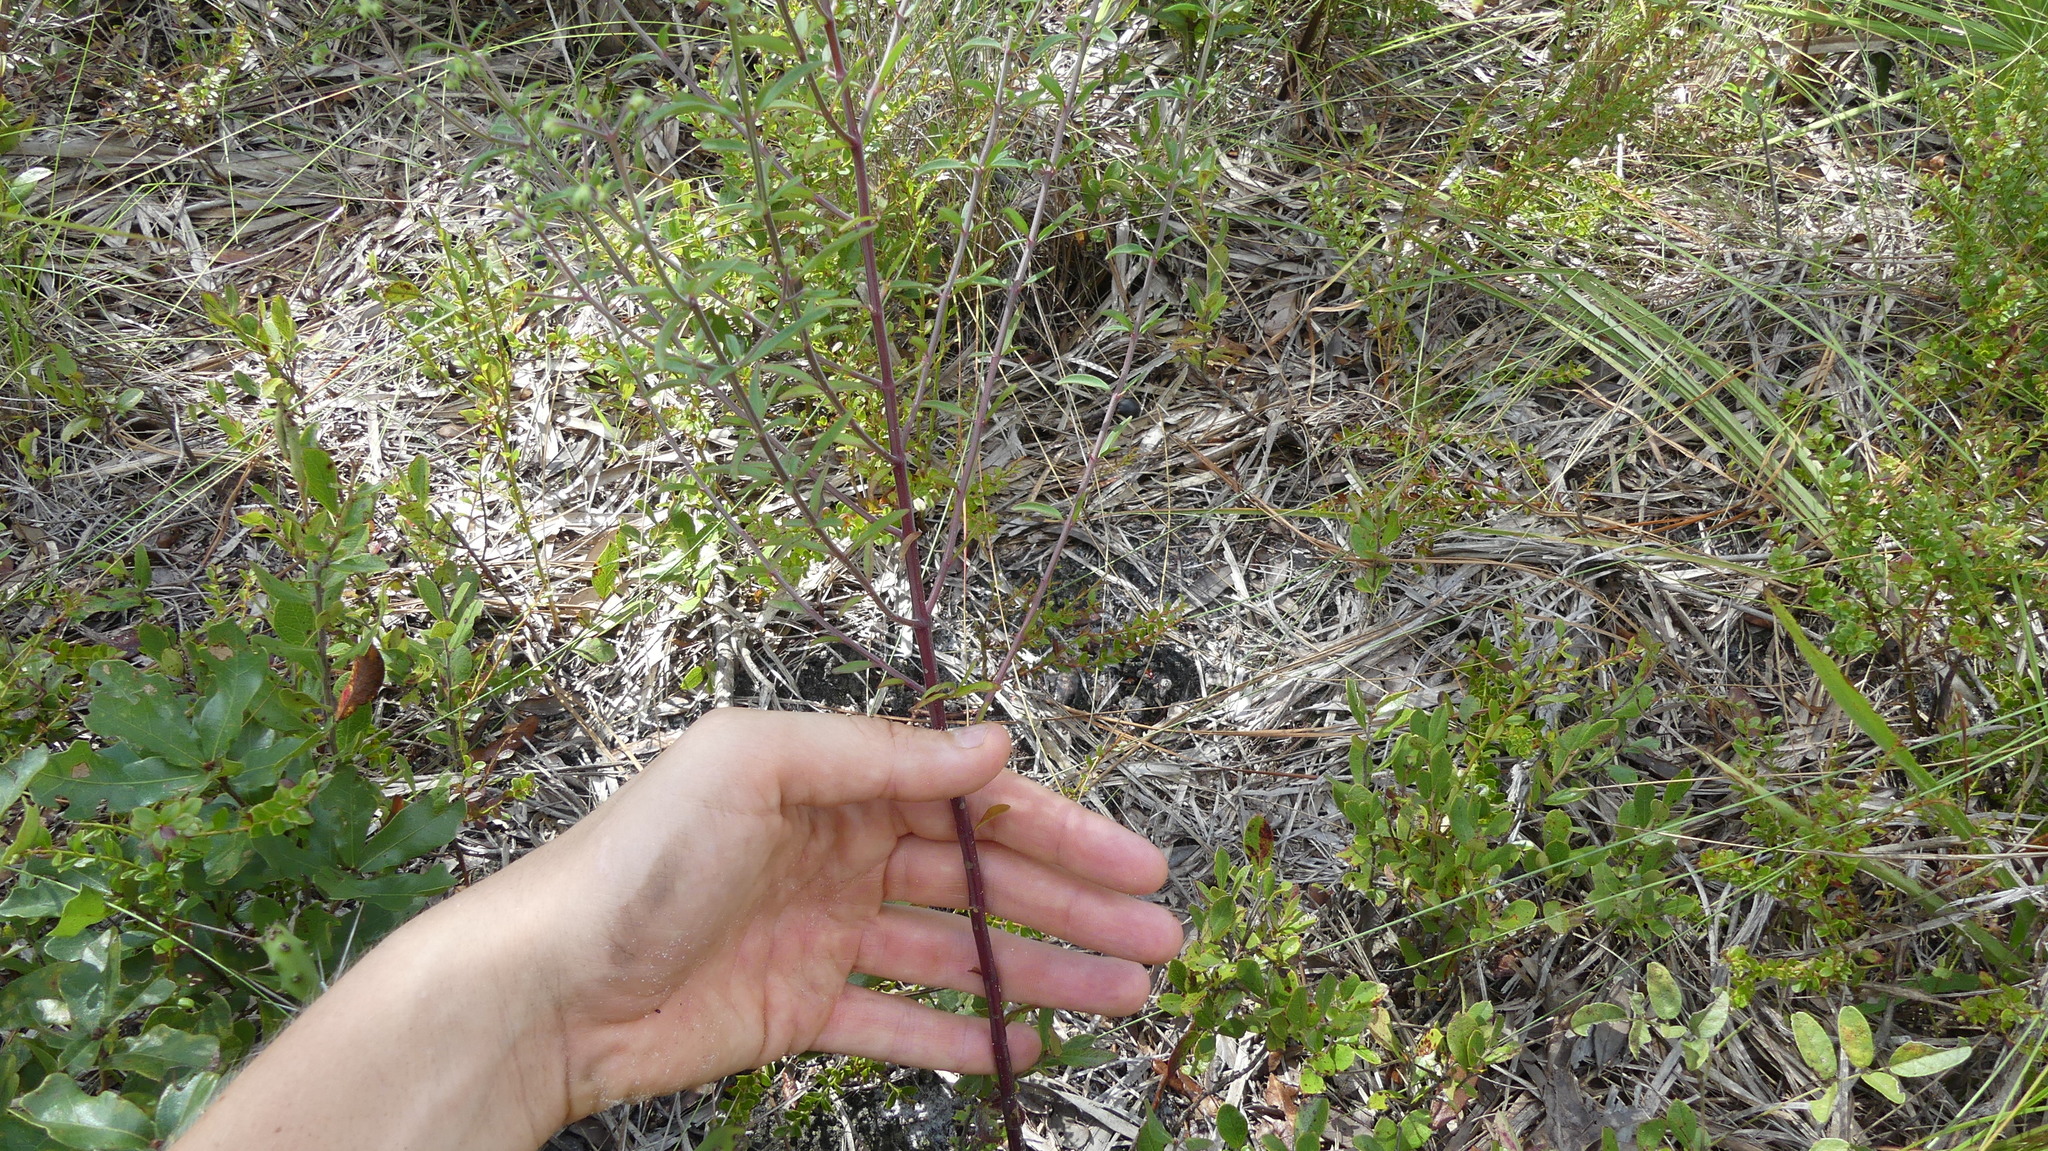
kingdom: Plantae
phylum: Tracheophyta
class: Magnoliopsida
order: Lamiales
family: Lamiaceae
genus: Trichostema
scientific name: Trichostema gracile
